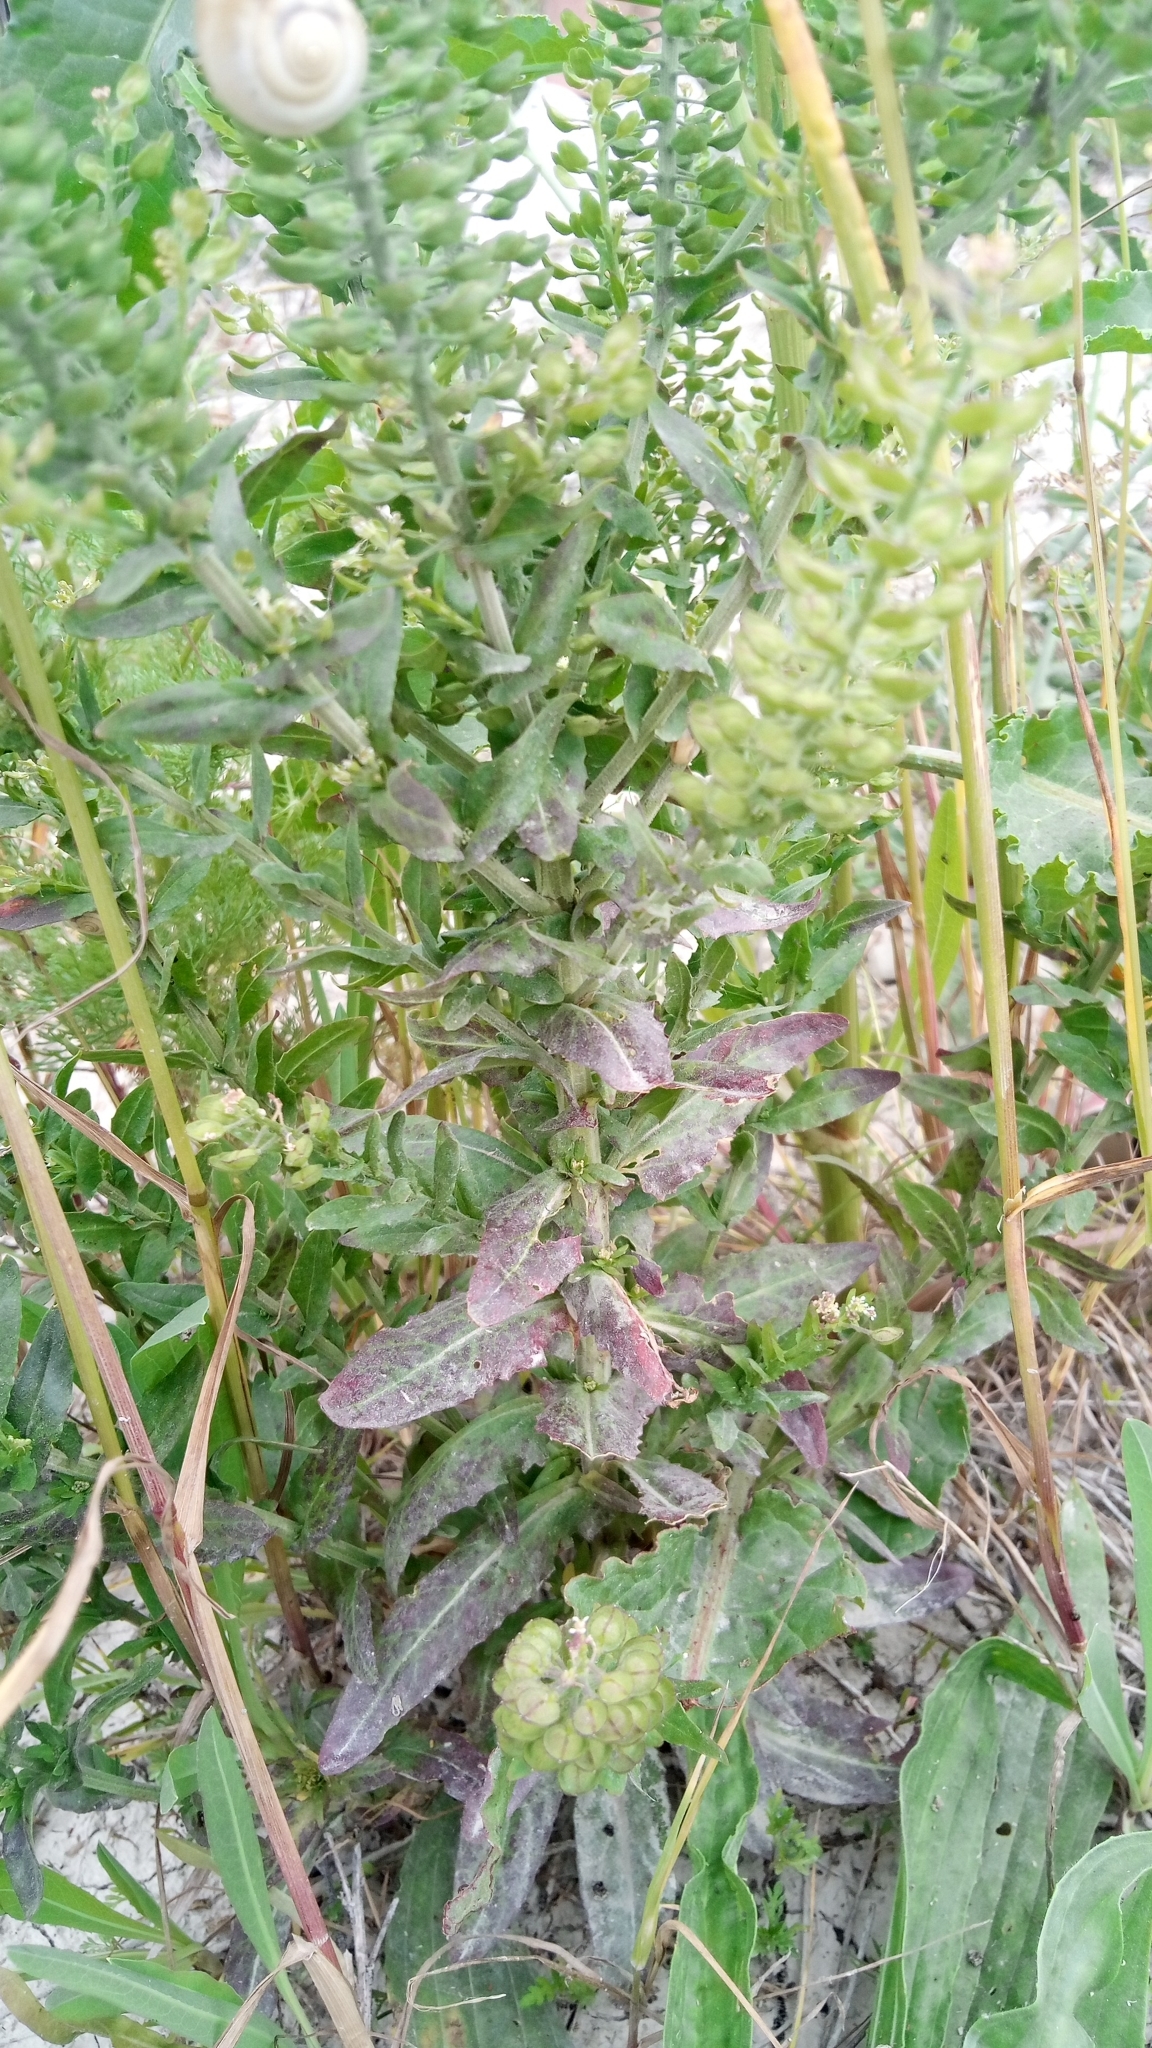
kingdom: Plantae
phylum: Tracheophyta
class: Magnoliopsida
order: Brassicales
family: Brassicaceae
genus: Lepidium
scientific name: Lepidium campestre
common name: Field pepperwort
